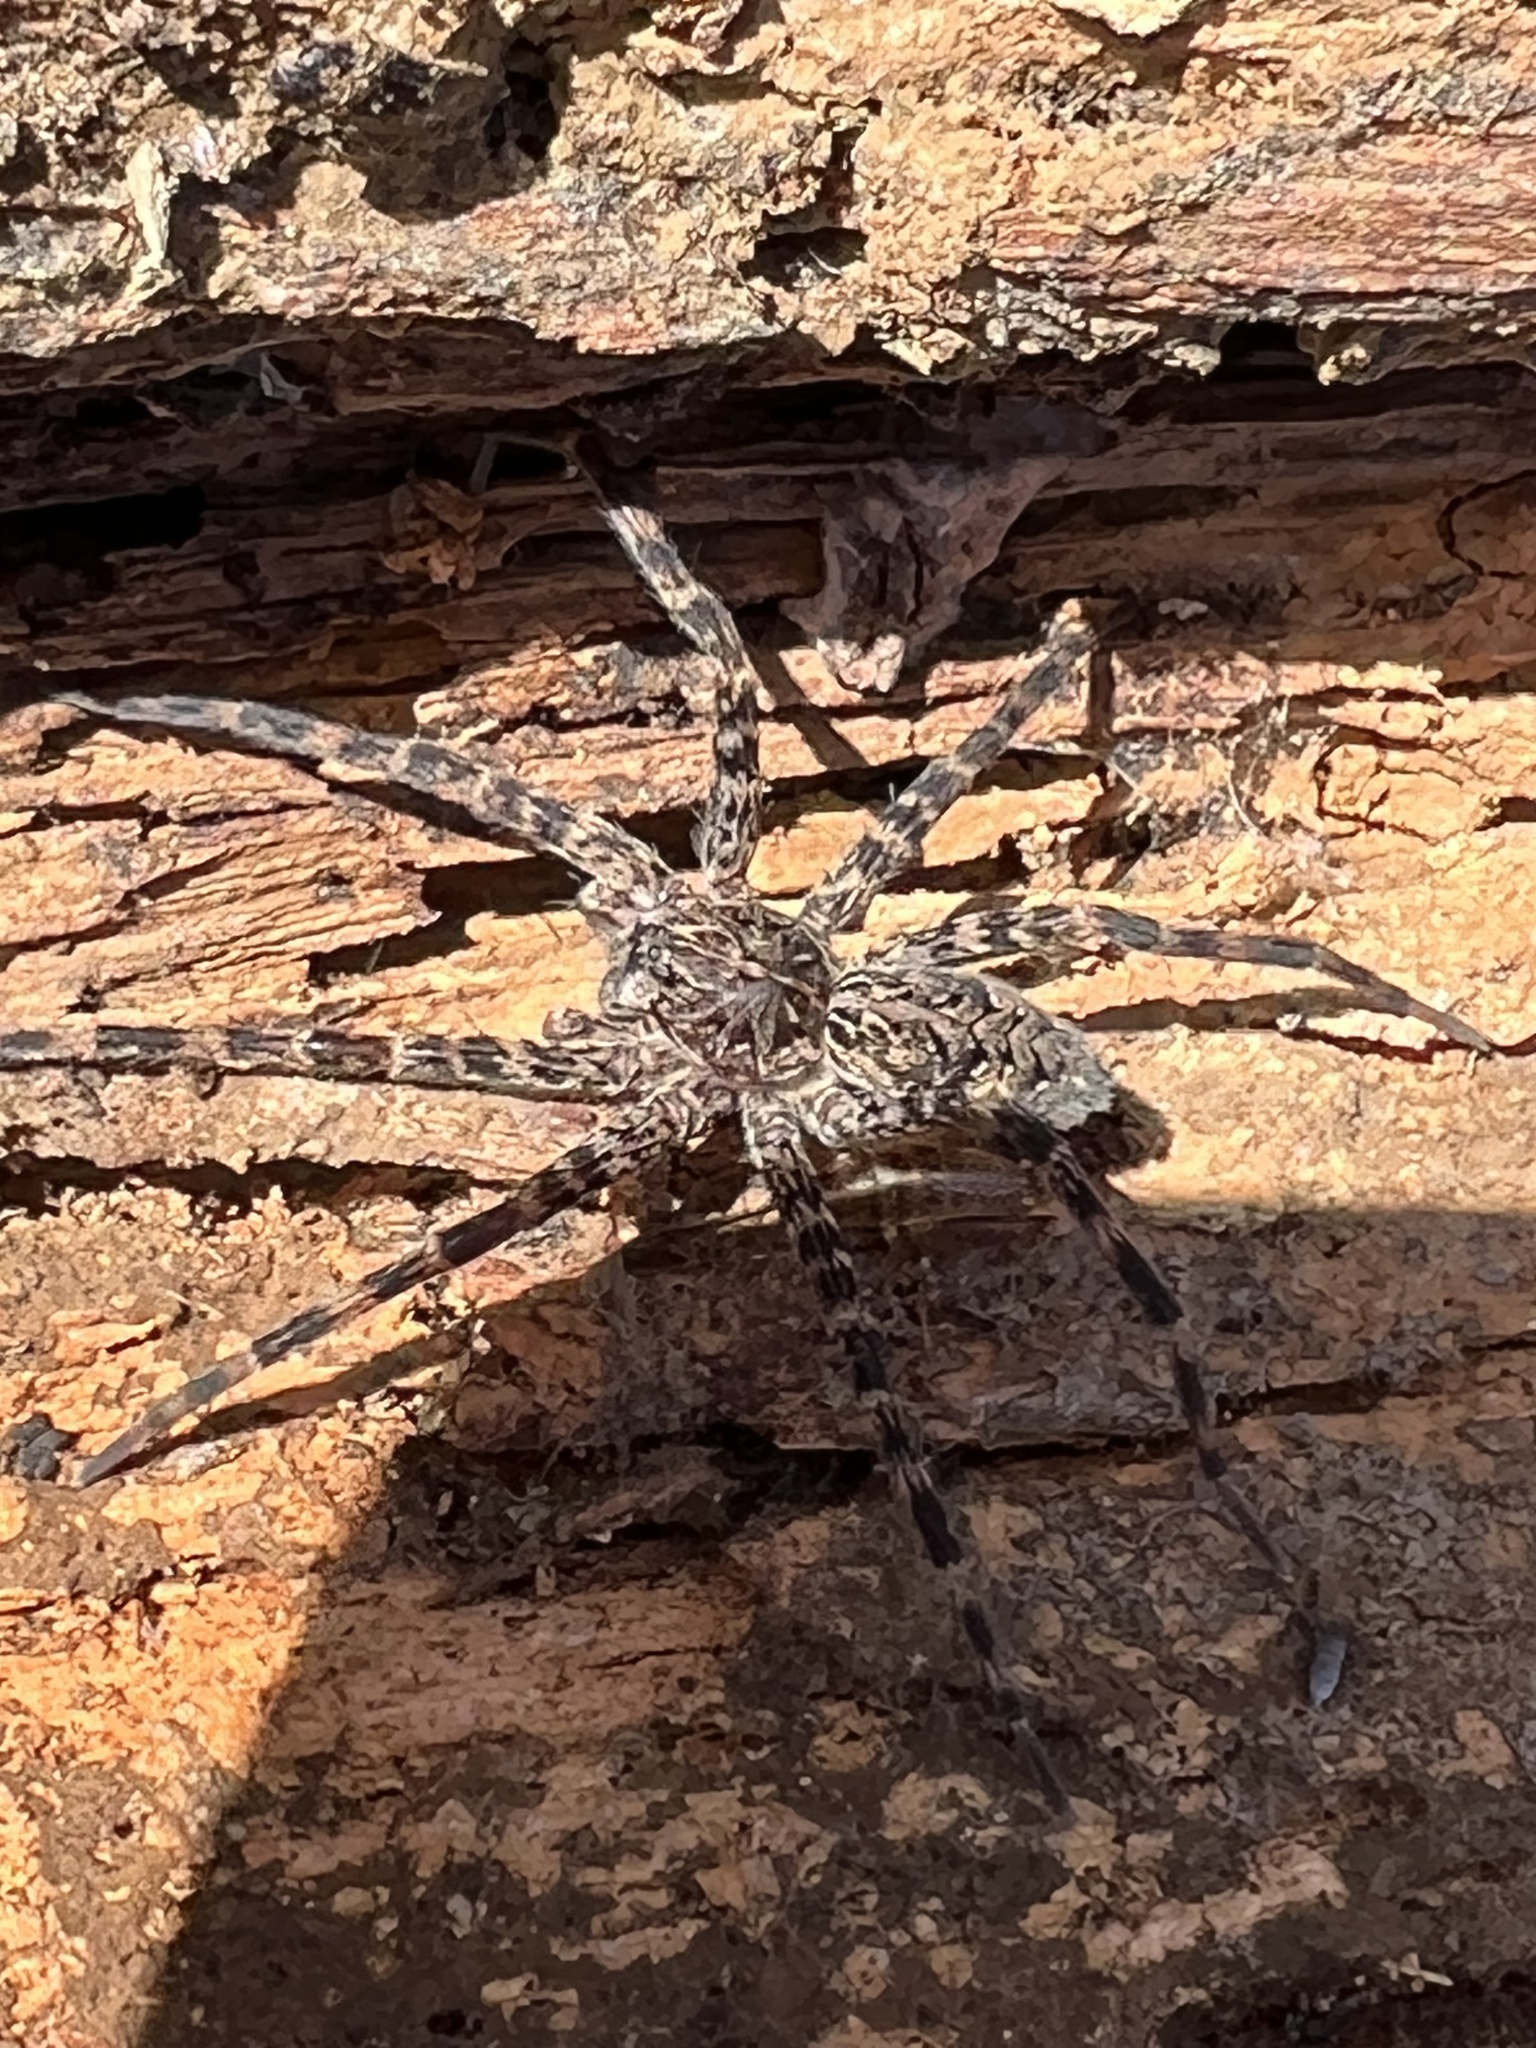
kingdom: Animalia
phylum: Arthropoda
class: Arachnida
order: Araneae
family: Pisauridae
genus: Dolomedes
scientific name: Dolomedes tenebrosus
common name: Dark fishing spider
